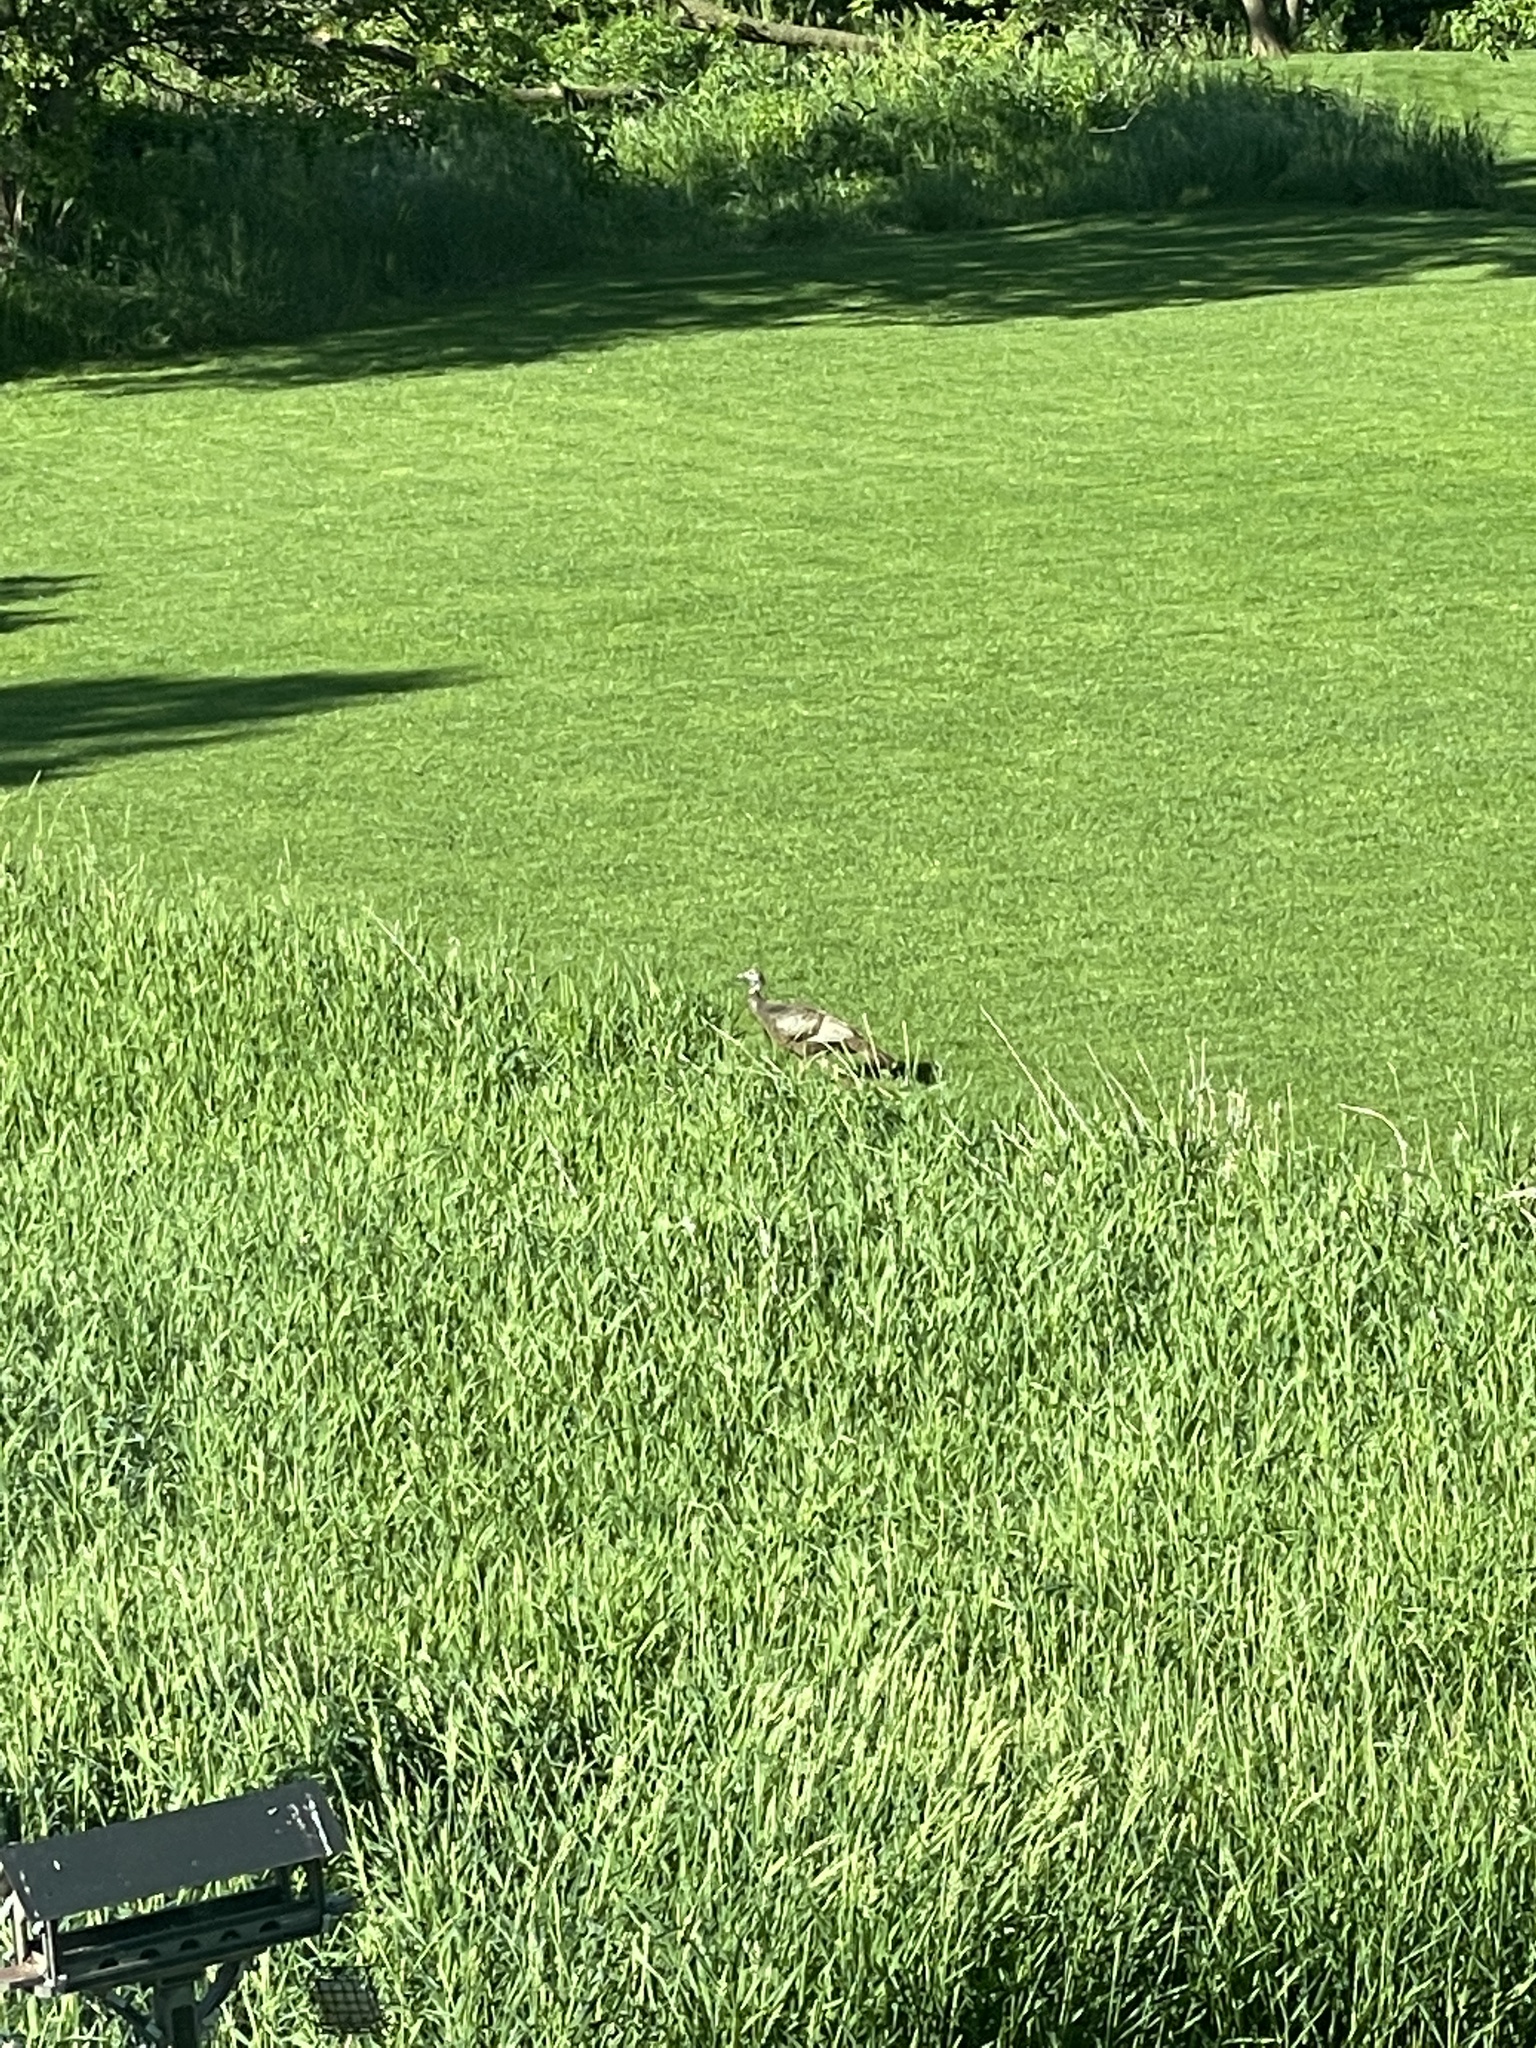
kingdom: Animalia
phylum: Chordata
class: Aves
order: Galliformes
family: Phasianidae
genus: Meleagris
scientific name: Meleagris gallopavo
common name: Wild turkey
